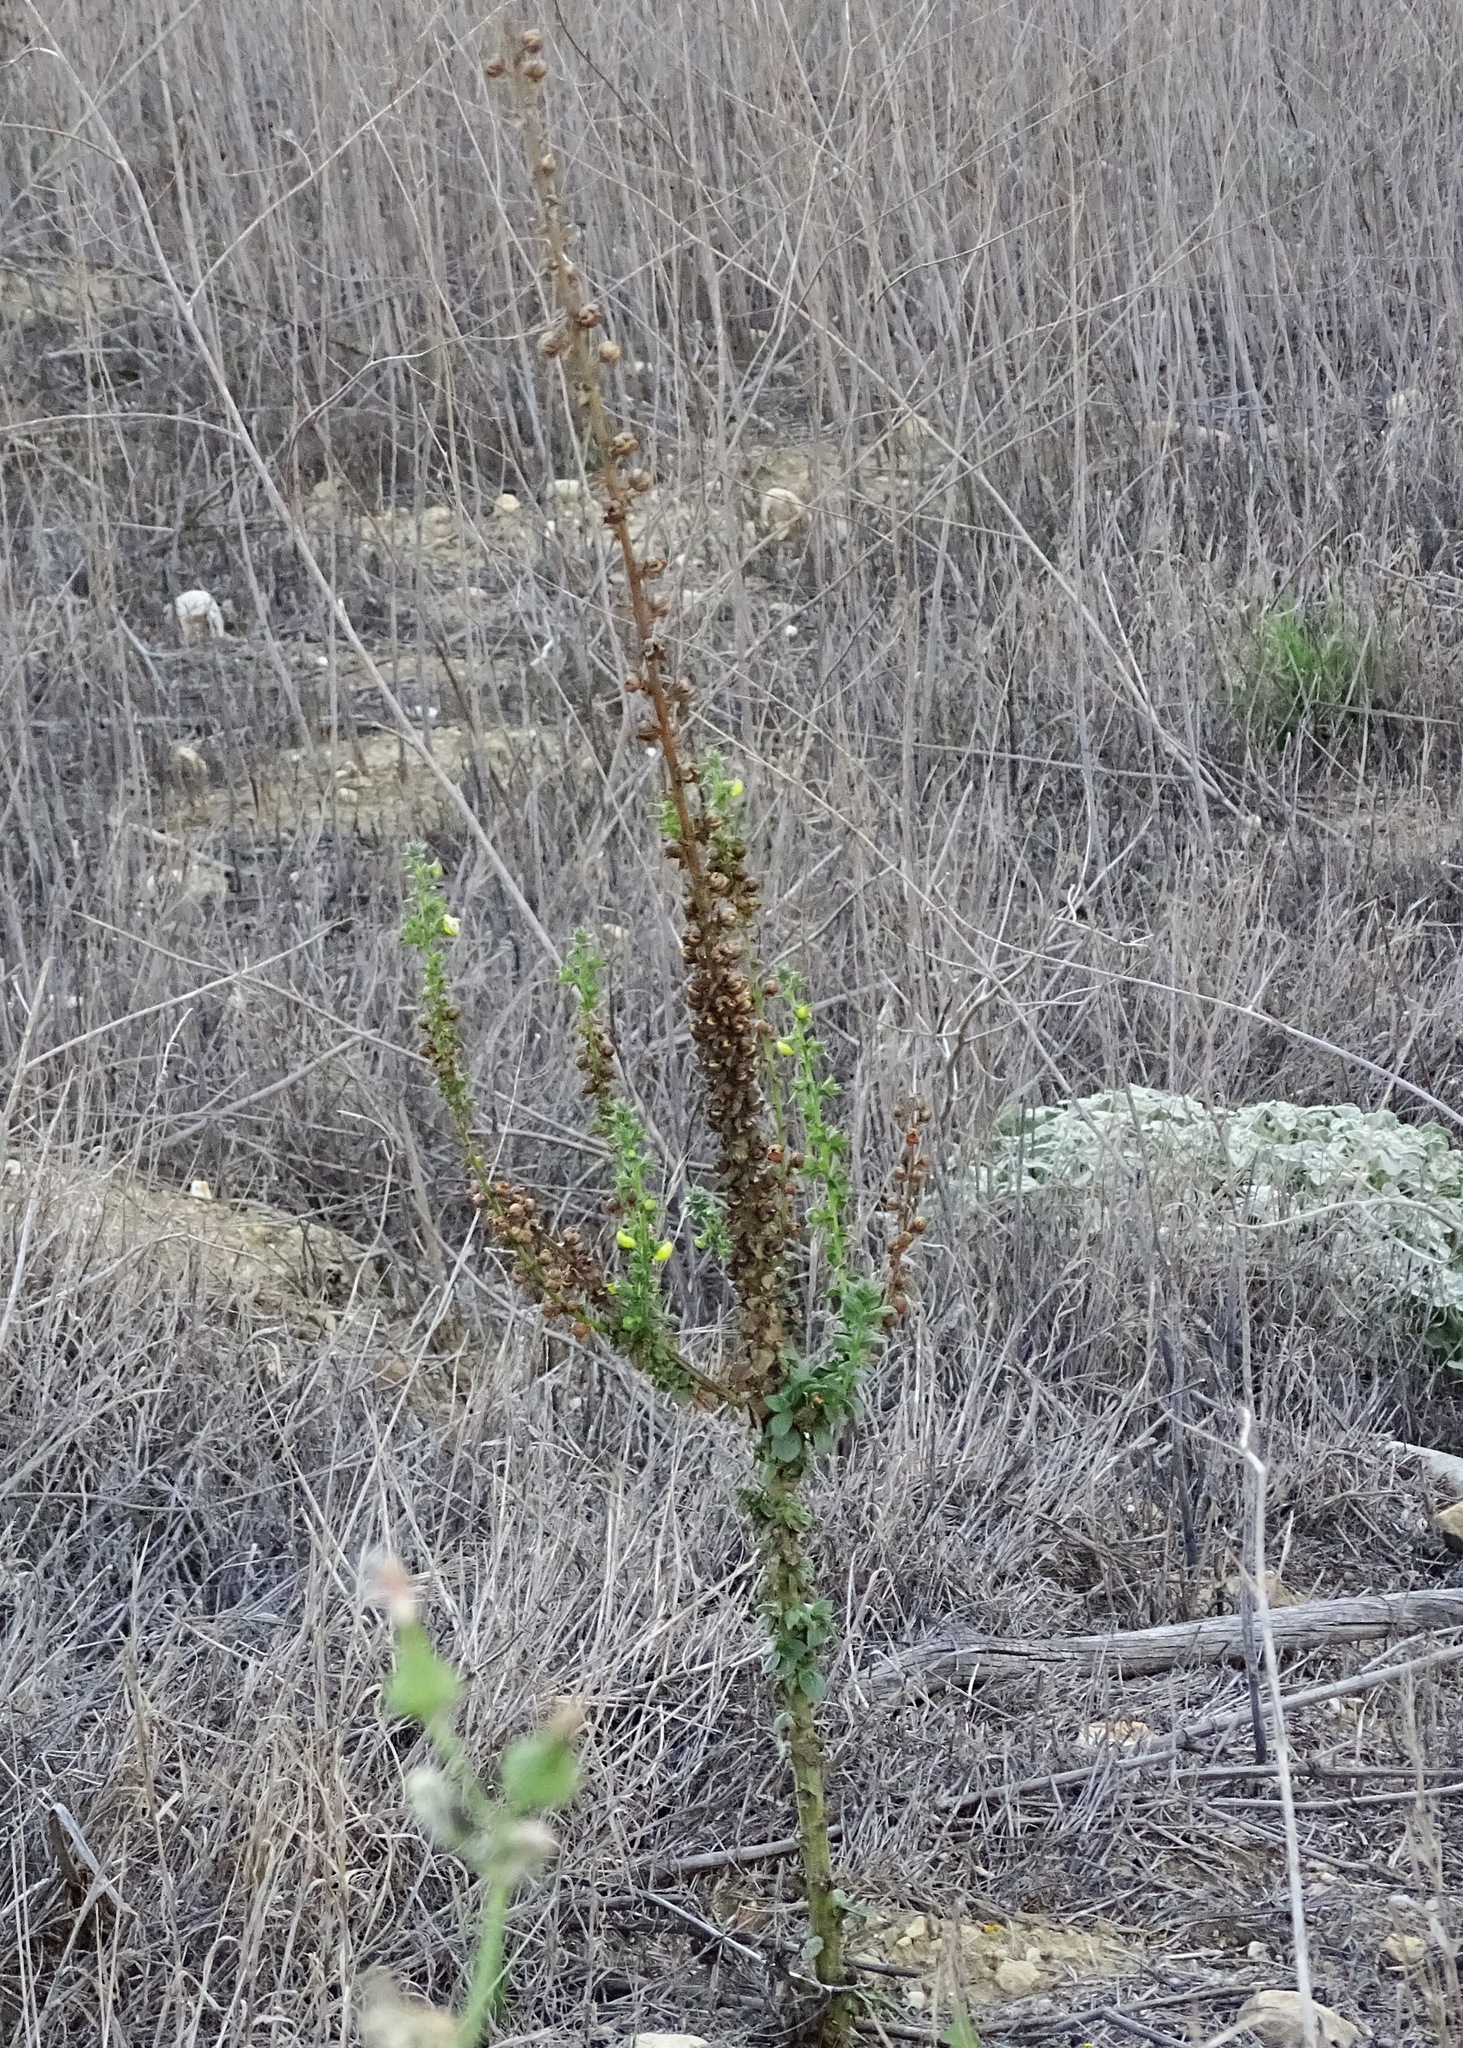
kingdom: Plantae
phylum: Tracheophyta
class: Magnoliopsida
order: Lamiales
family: Scrophulariaceae
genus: Verbascum
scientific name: Verbascum virgatum
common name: Twiggy mullein
